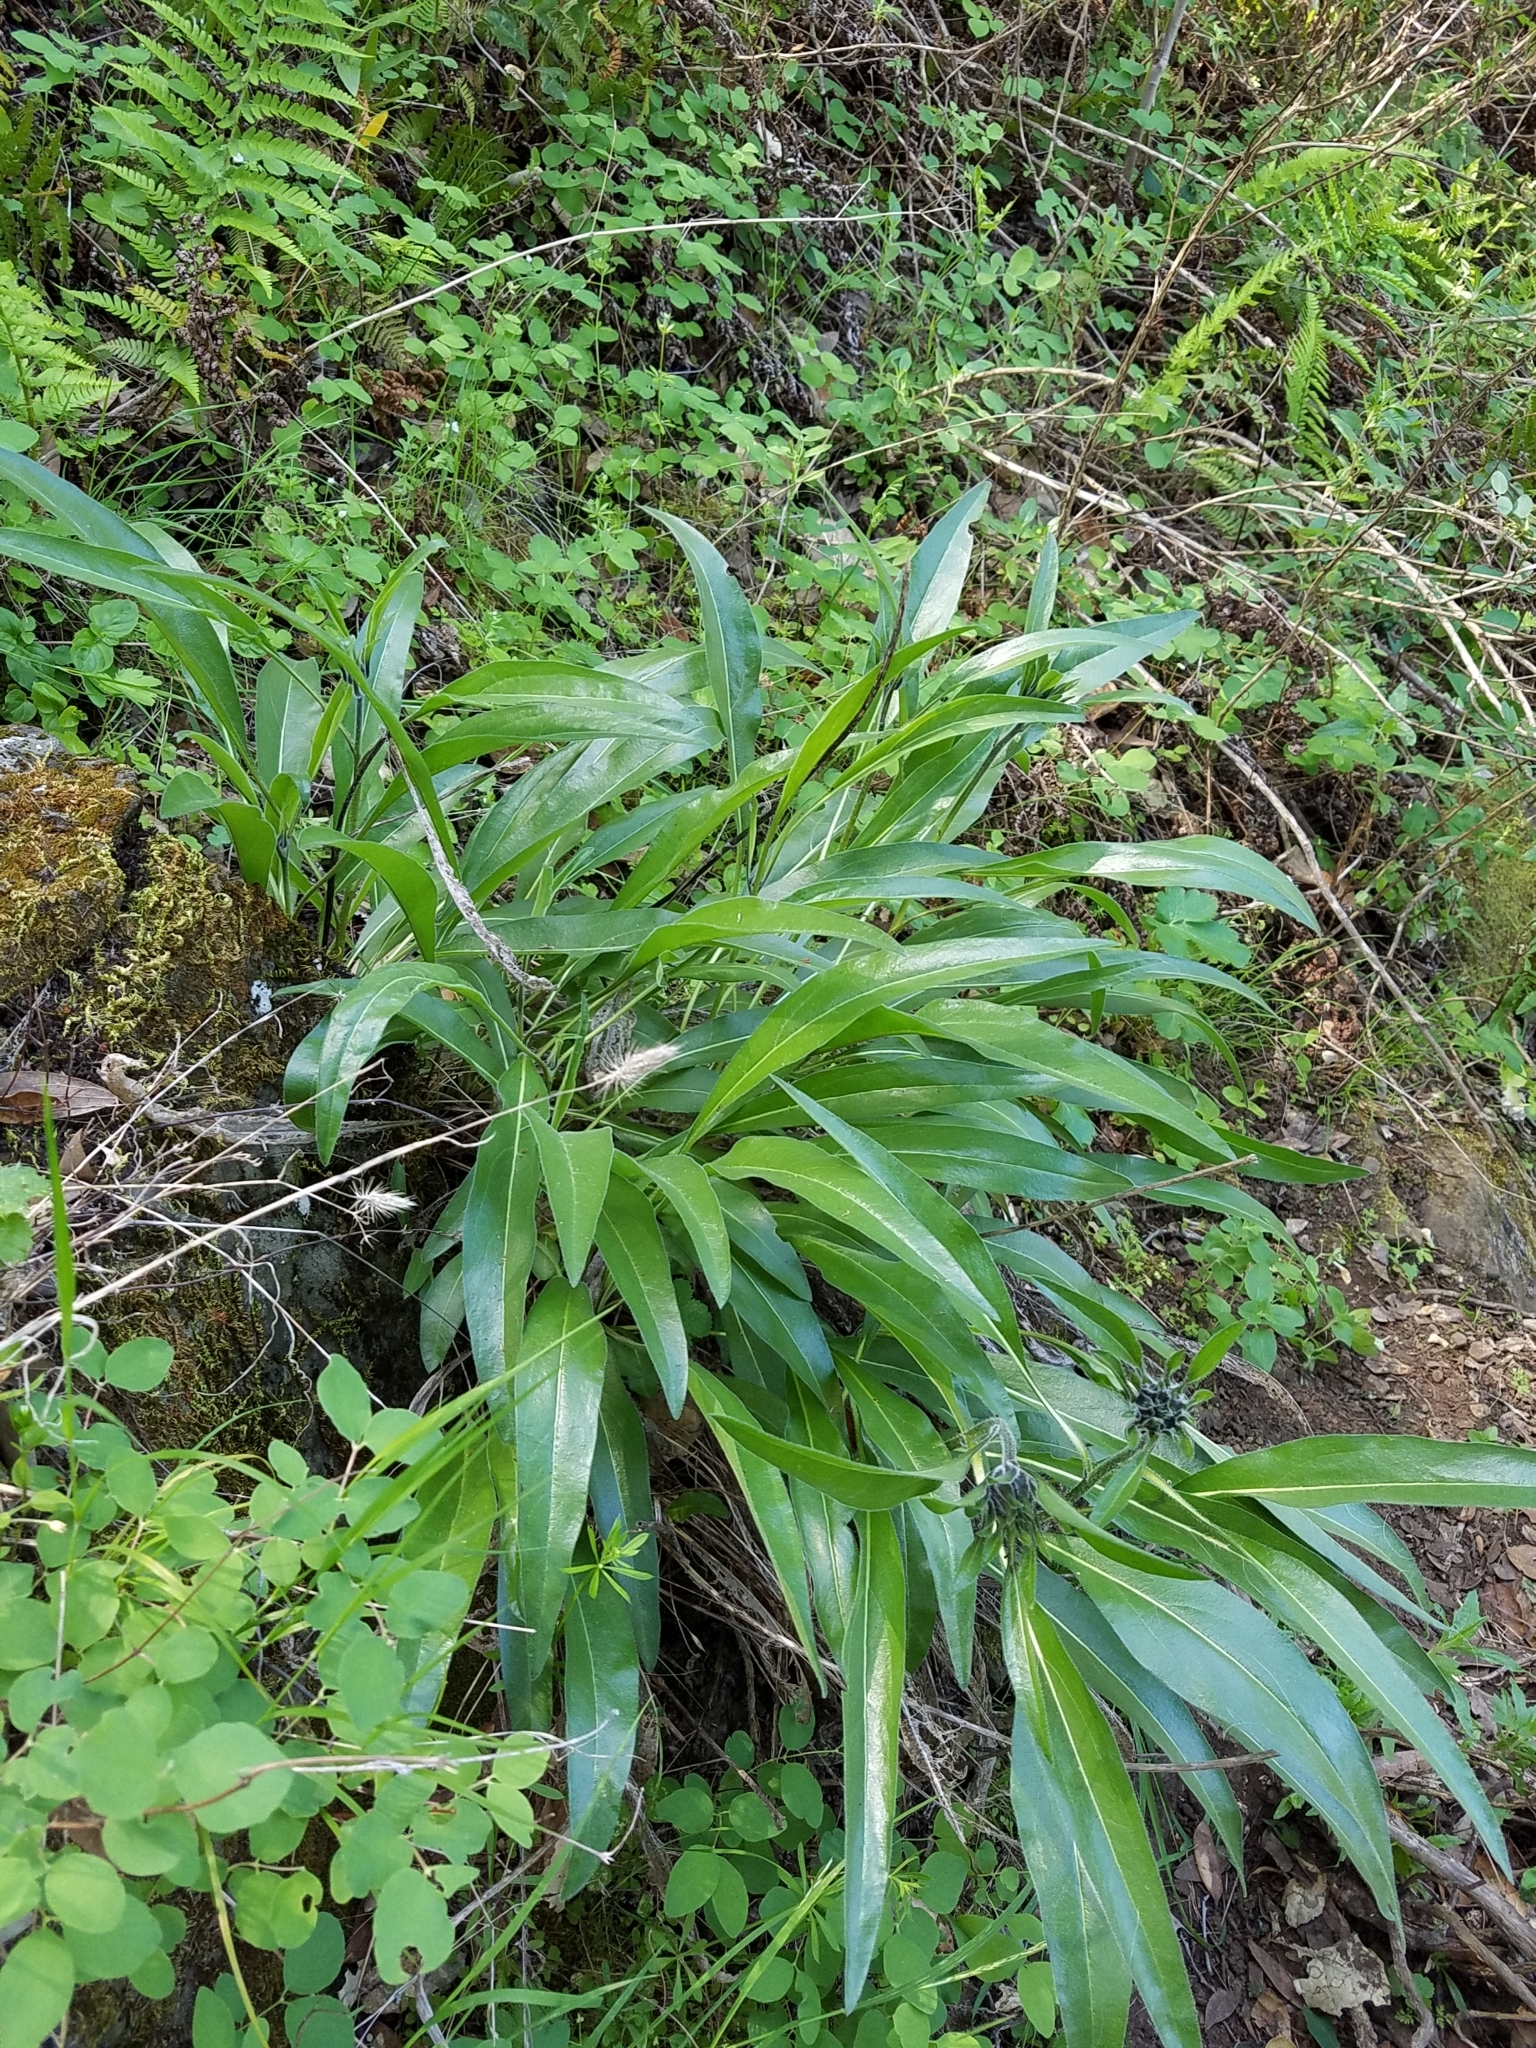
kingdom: Plantae
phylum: Tracheophyta
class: Magnoliopsida
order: Asterales
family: Asteraceae
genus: Helianthella
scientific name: Helianthella castanea
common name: Diablo helianthella
